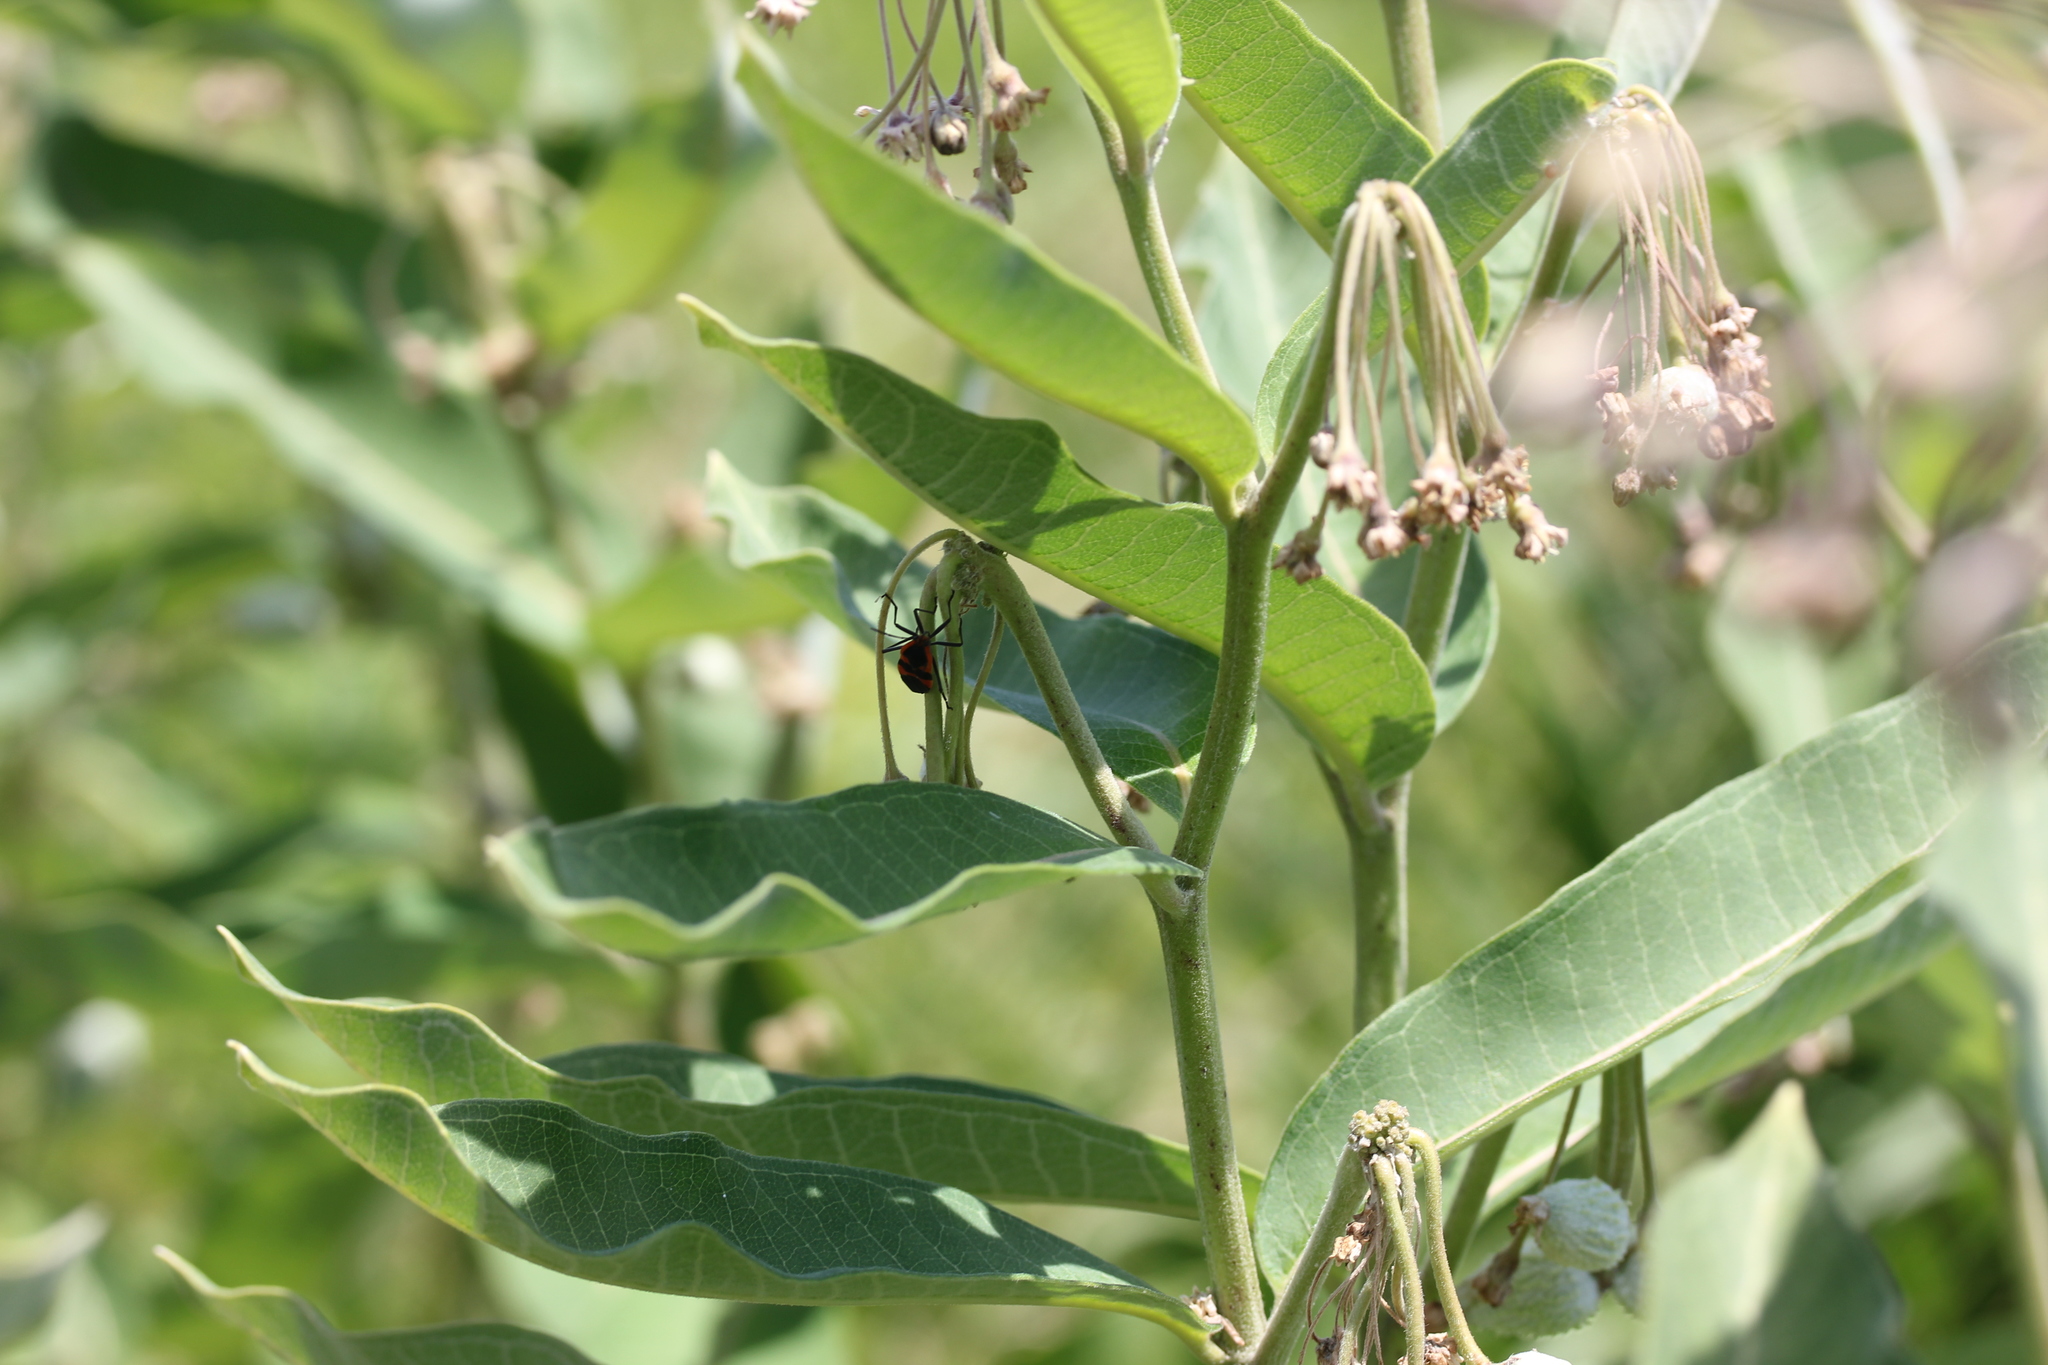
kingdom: Plantae
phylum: Tracheophyta
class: Magnoliopsida
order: Gentianales
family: Apocynaceae
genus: Asclepias
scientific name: Asclepias syriaca
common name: Common milkweed
